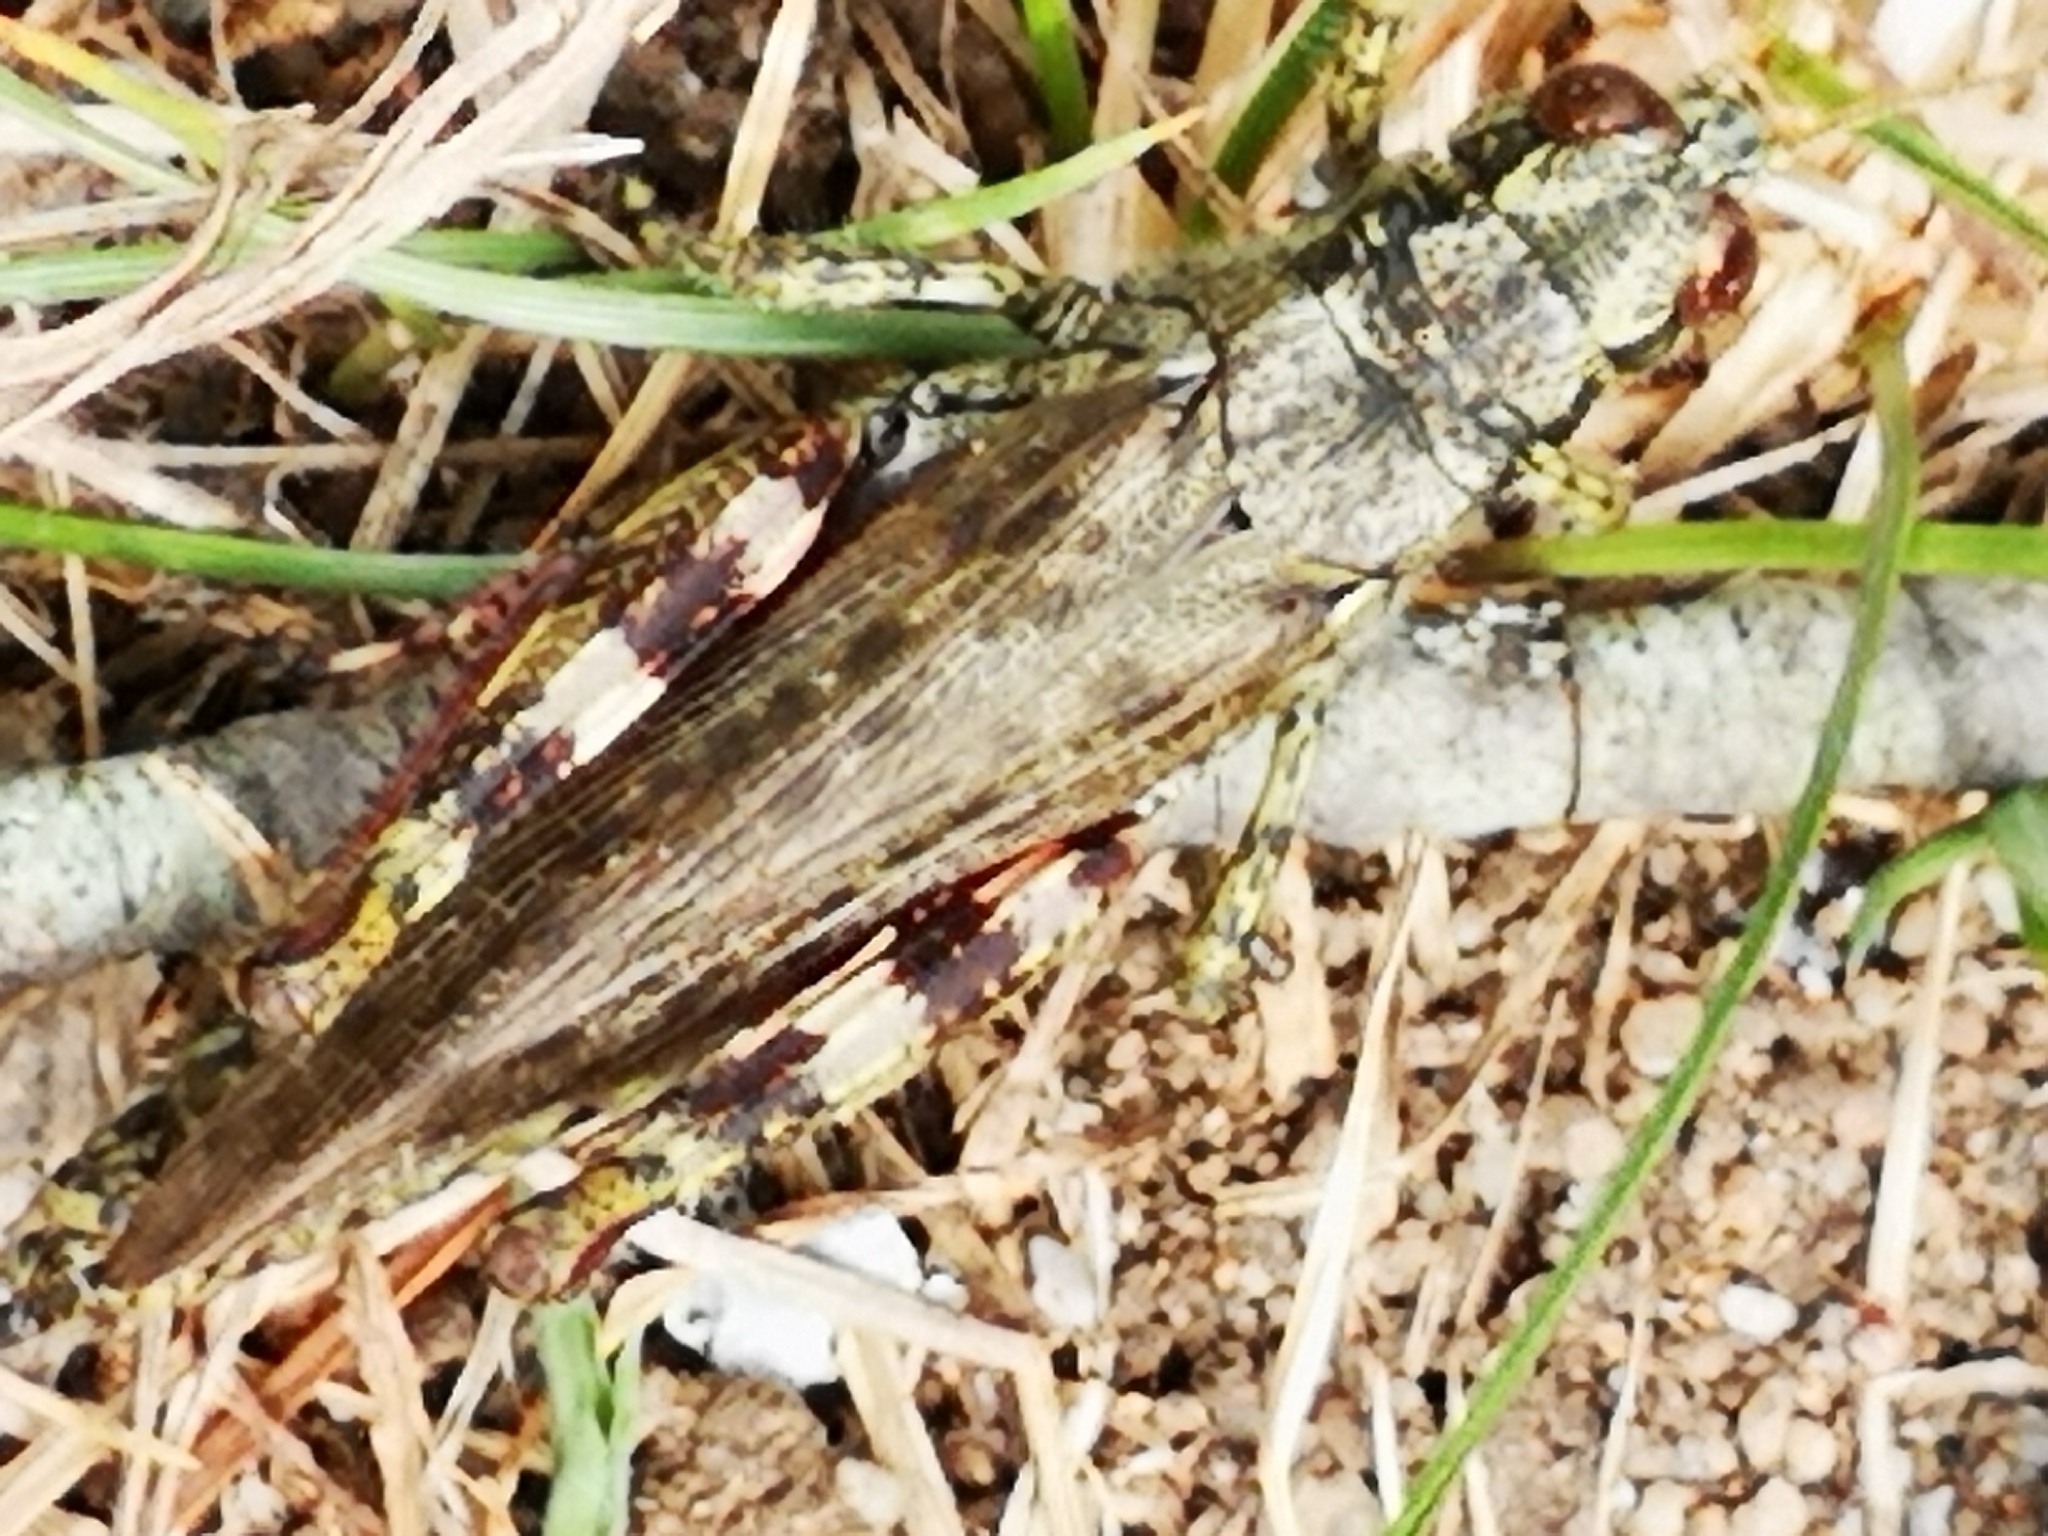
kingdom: Animalia
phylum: Arthropoda
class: Insecta
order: Orthoptera
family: Acrididae
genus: Melanoplus
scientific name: Melanoplus punctulatus
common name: Pine-tree spur-throat grasshopper
